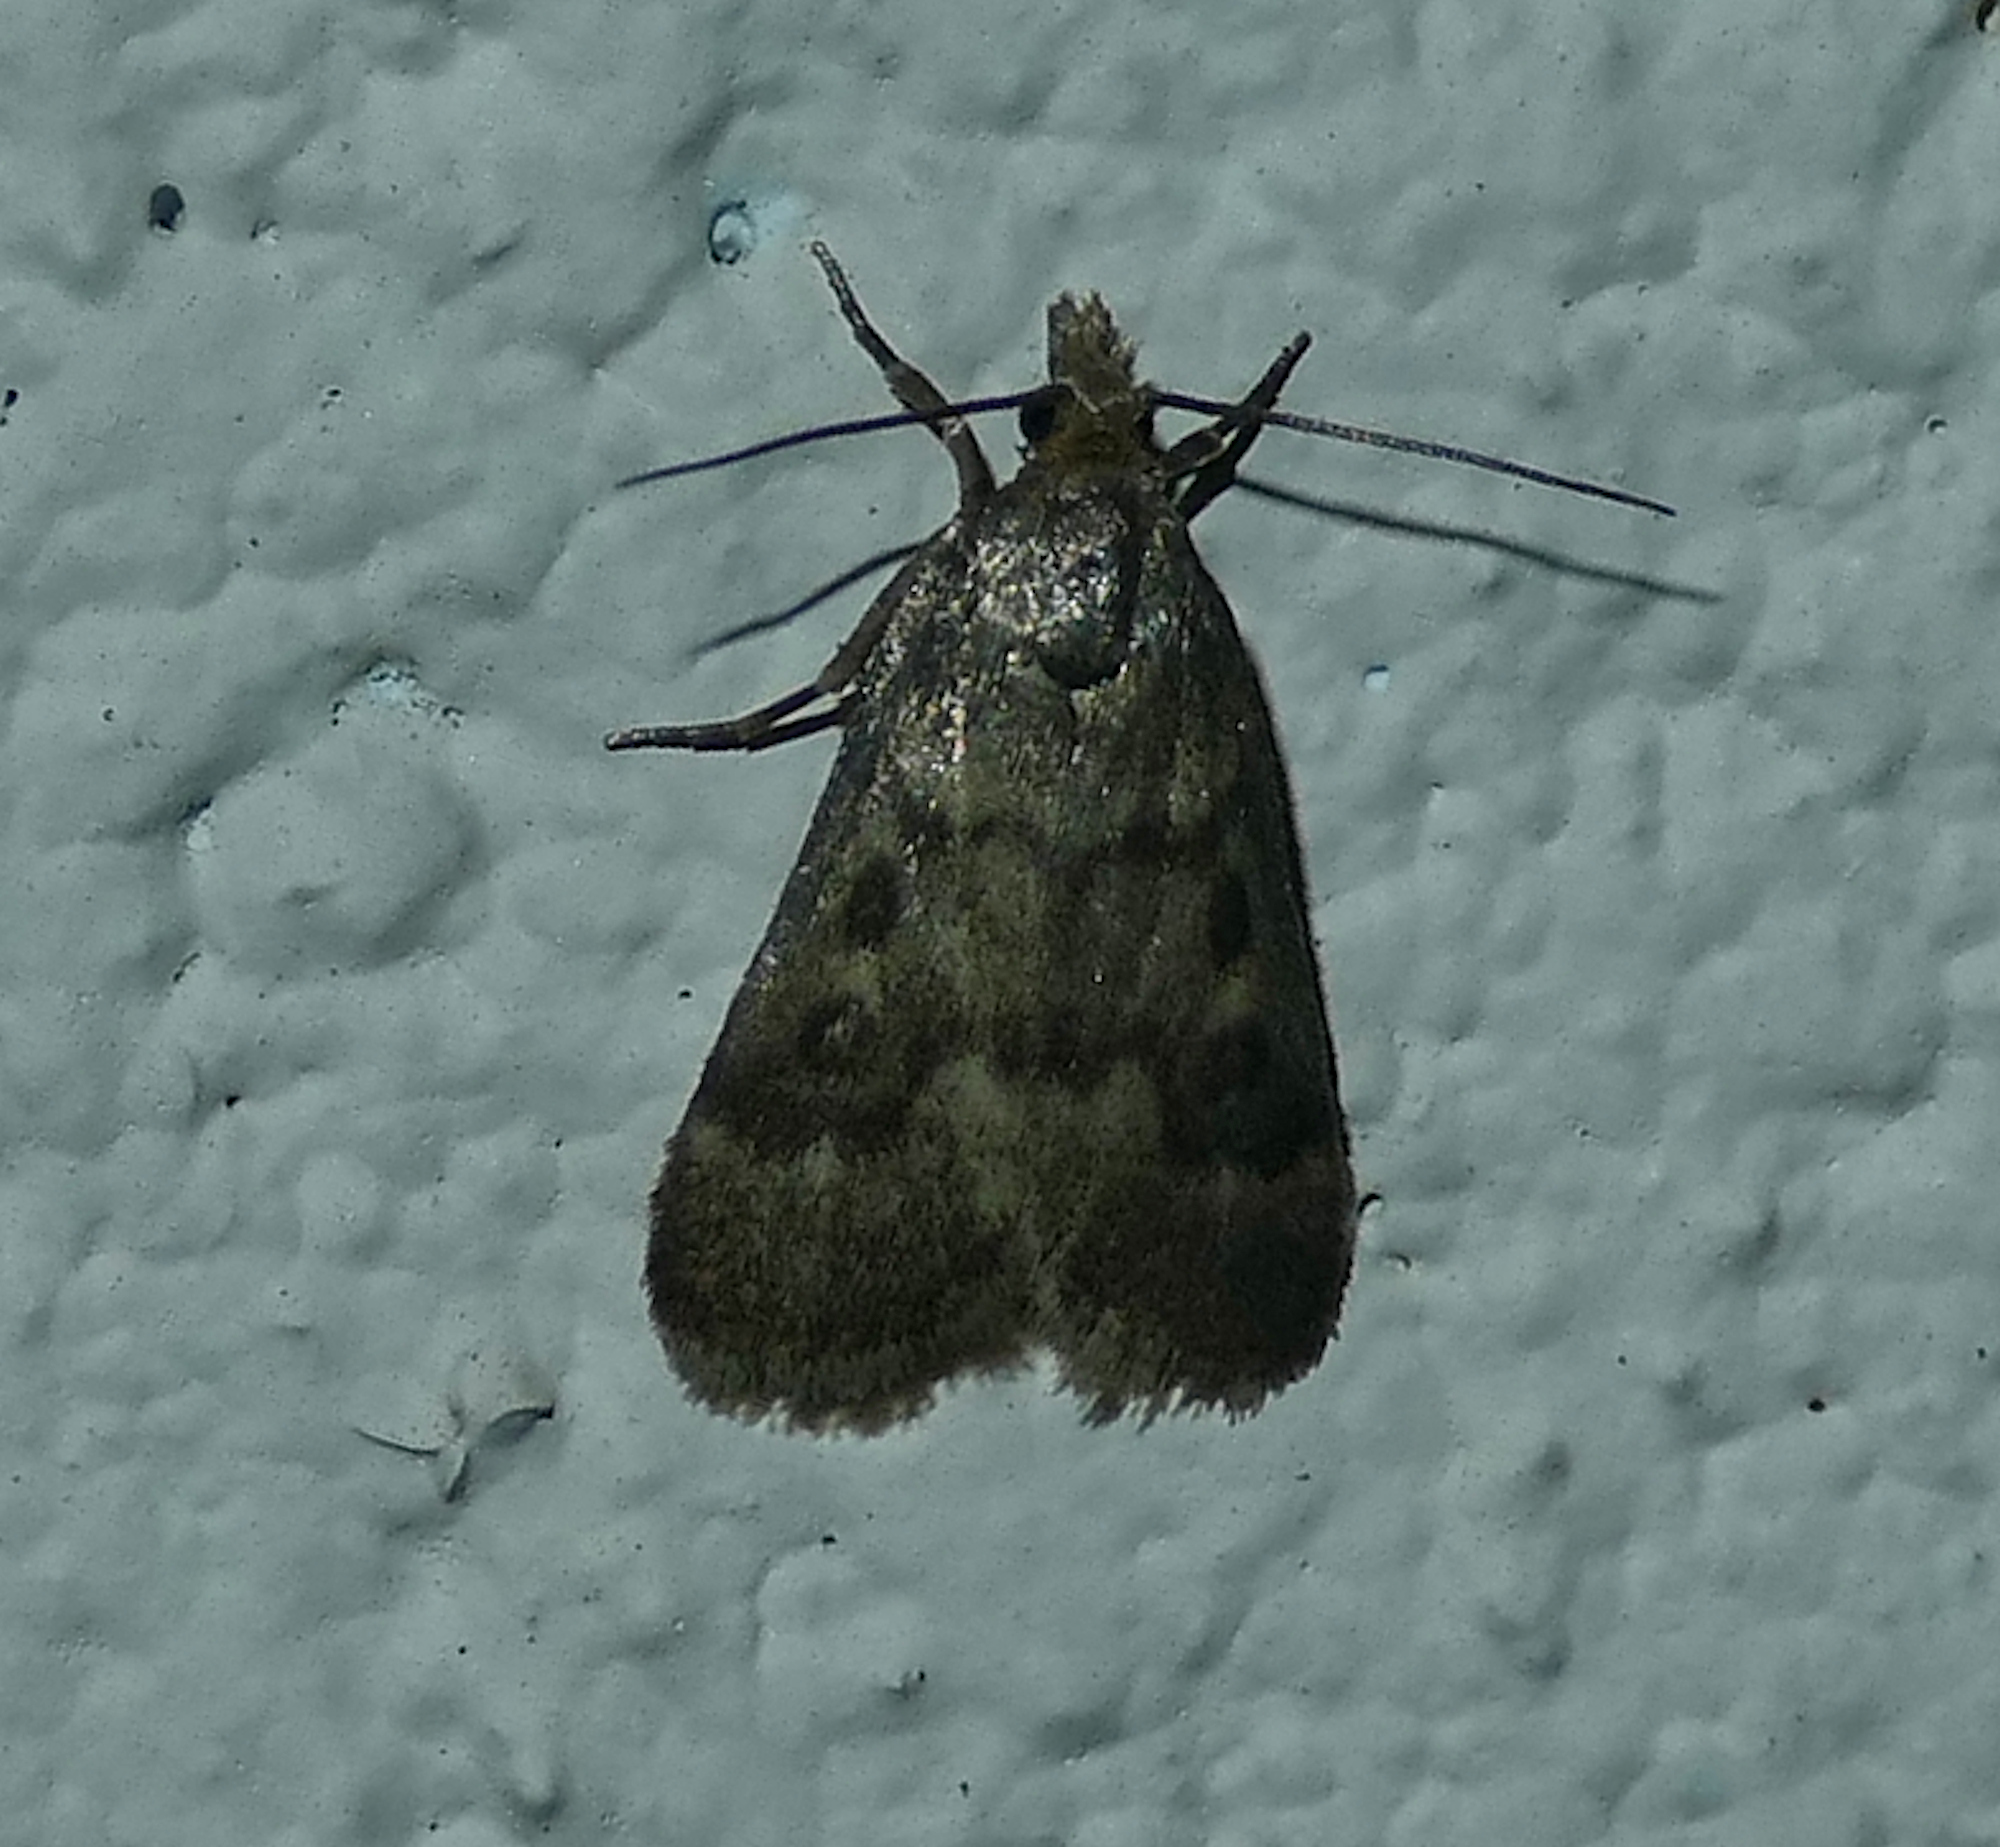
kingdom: Animalia
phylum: Arthropoda
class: Insecta
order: Lepidoptera
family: Crambidae
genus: Loxostegopsis
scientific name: Loxostegopsis polle
